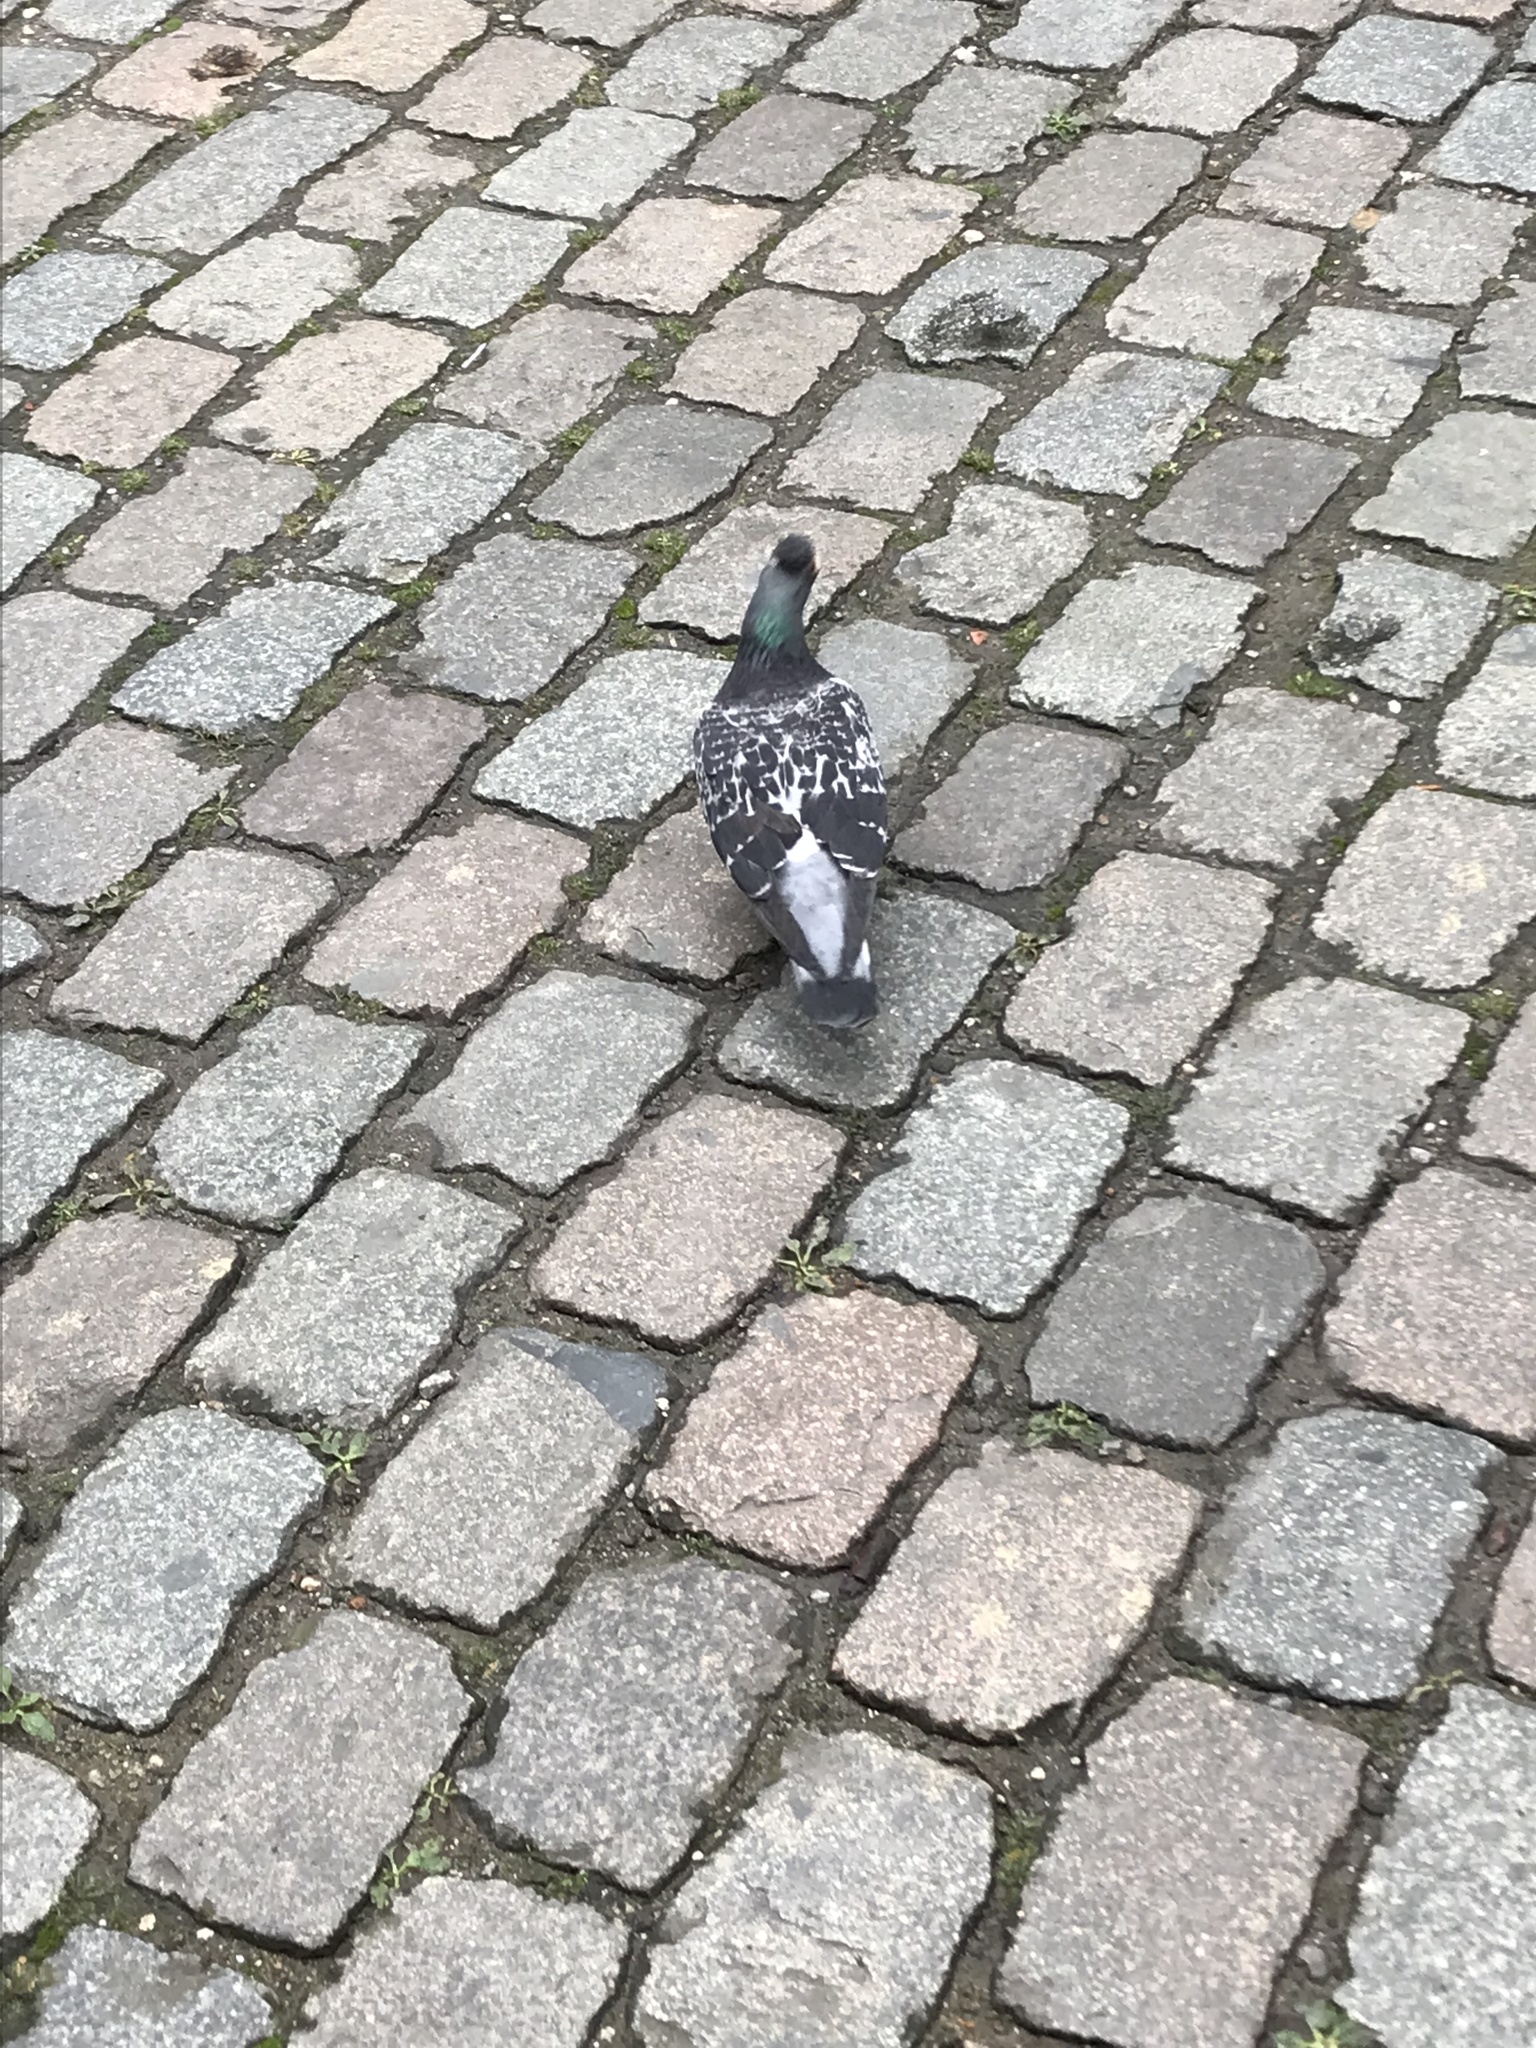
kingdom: Animalia
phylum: Chordata
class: Aves
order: Columbiformes
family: Columbidae
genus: Columba
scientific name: Columba livia
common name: Rock pigeon
